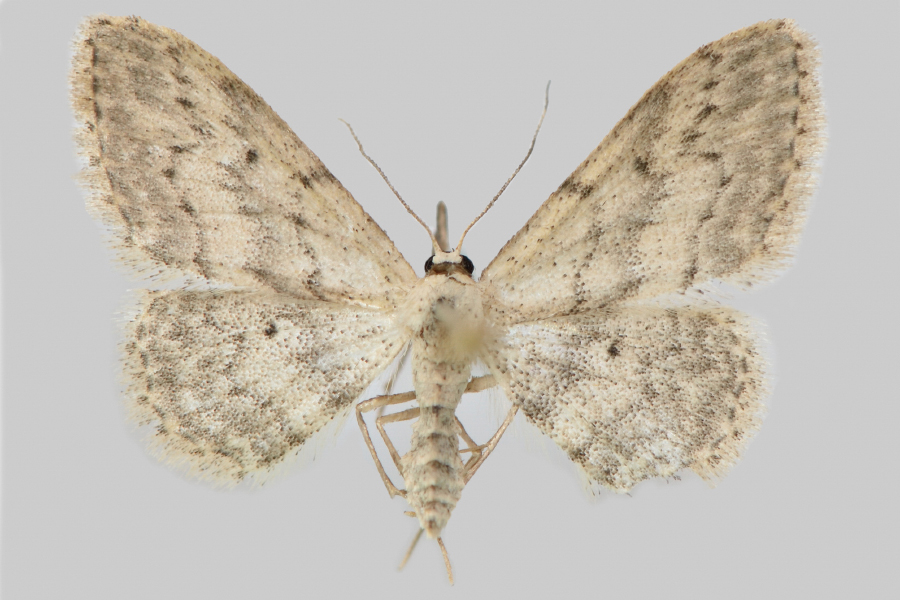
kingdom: Animalia
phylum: Arthropoda
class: Insecta
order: Lepidoptera
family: Geometridae
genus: Idaea
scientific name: Idaea seriata
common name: Small dusty wave
